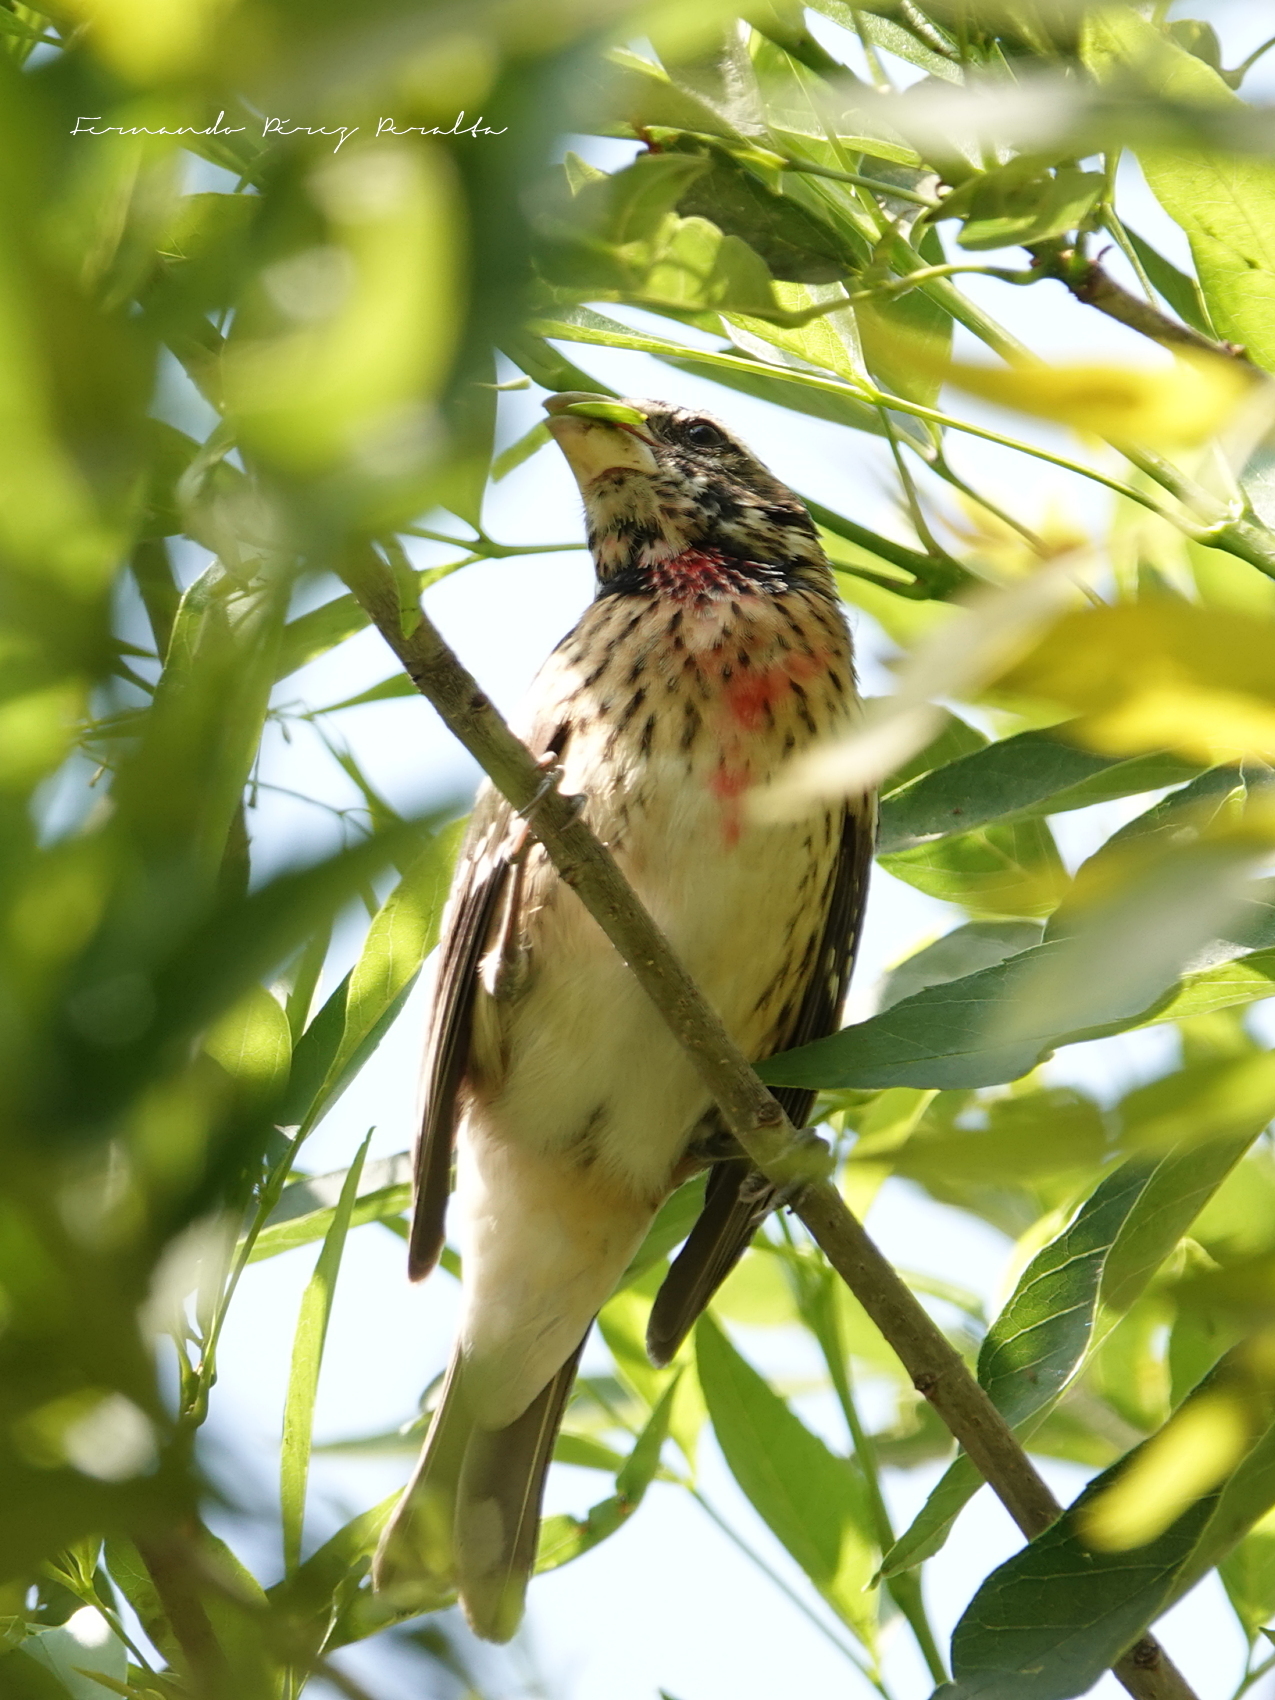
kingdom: Animalia
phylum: Chordata
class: Aves
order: Passeriformes
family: Cardinalidae
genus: Pheucticus
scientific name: Pheucticus ludovicianus
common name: Rose-breasted grosbeak
